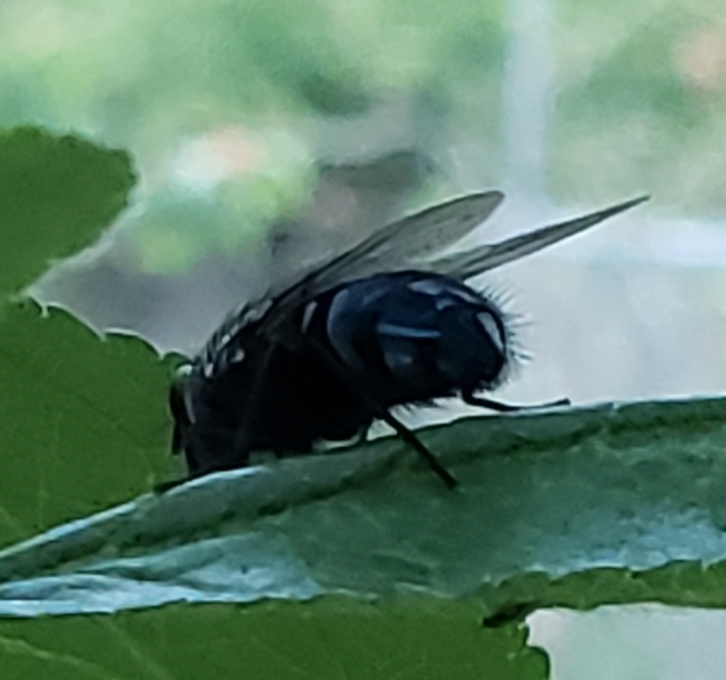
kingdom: Animalia
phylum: Arthropoda
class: Insecta
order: Diptera
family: Calliphoridae
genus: Calliphora
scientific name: Calliphora vicina
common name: Common blow flie
